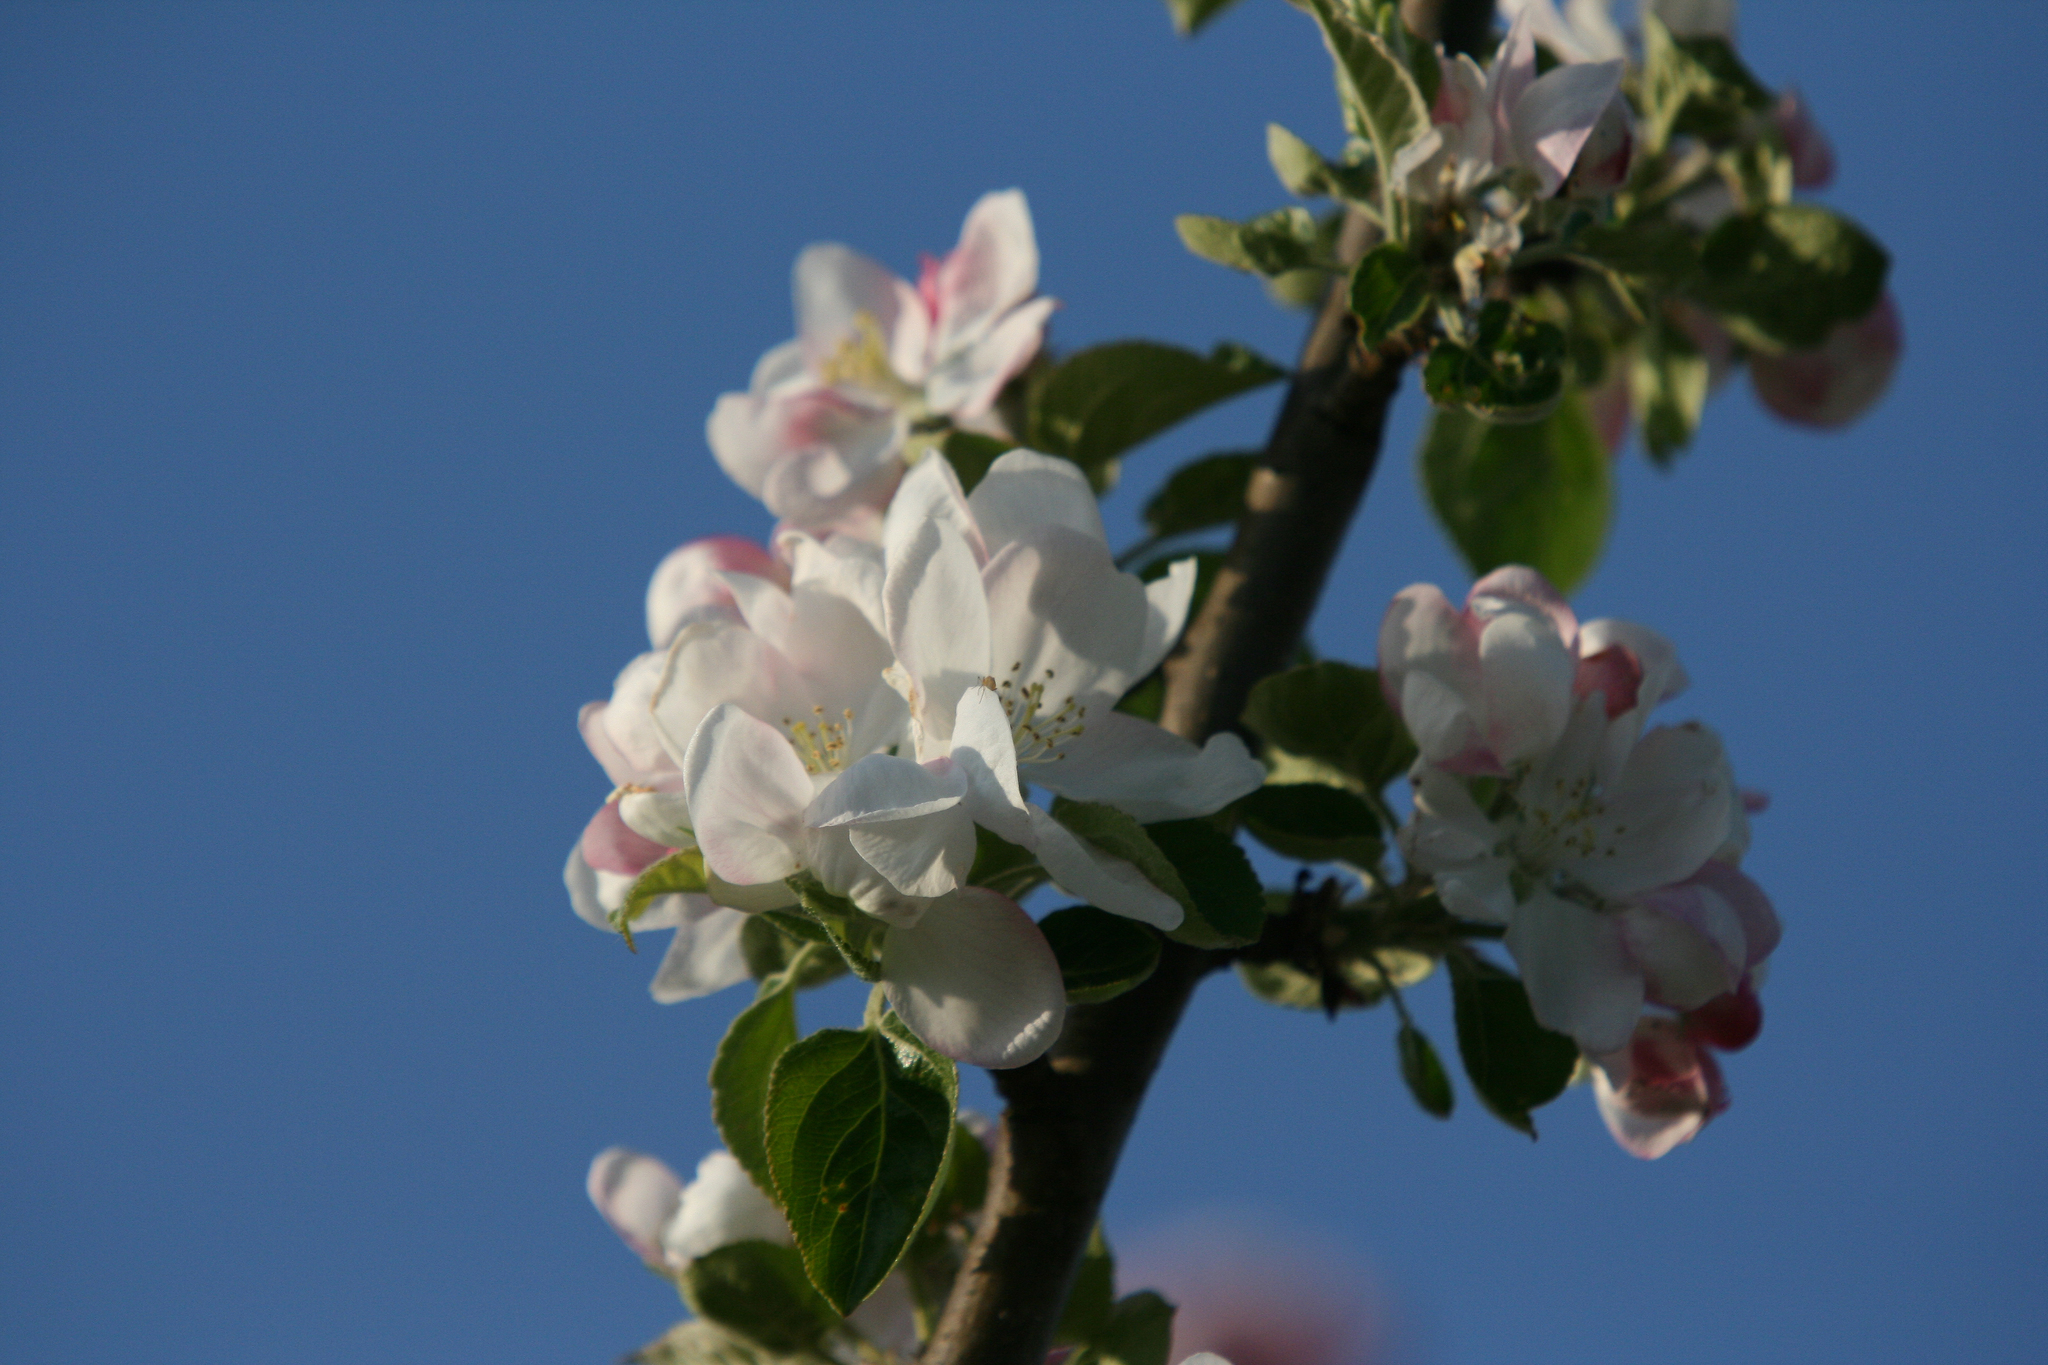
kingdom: Plantae
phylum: Tracheophyta
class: Magnoliopsida
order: Rosales
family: Rosaceae
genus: Malus
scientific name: Malus domestica
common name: Apple
